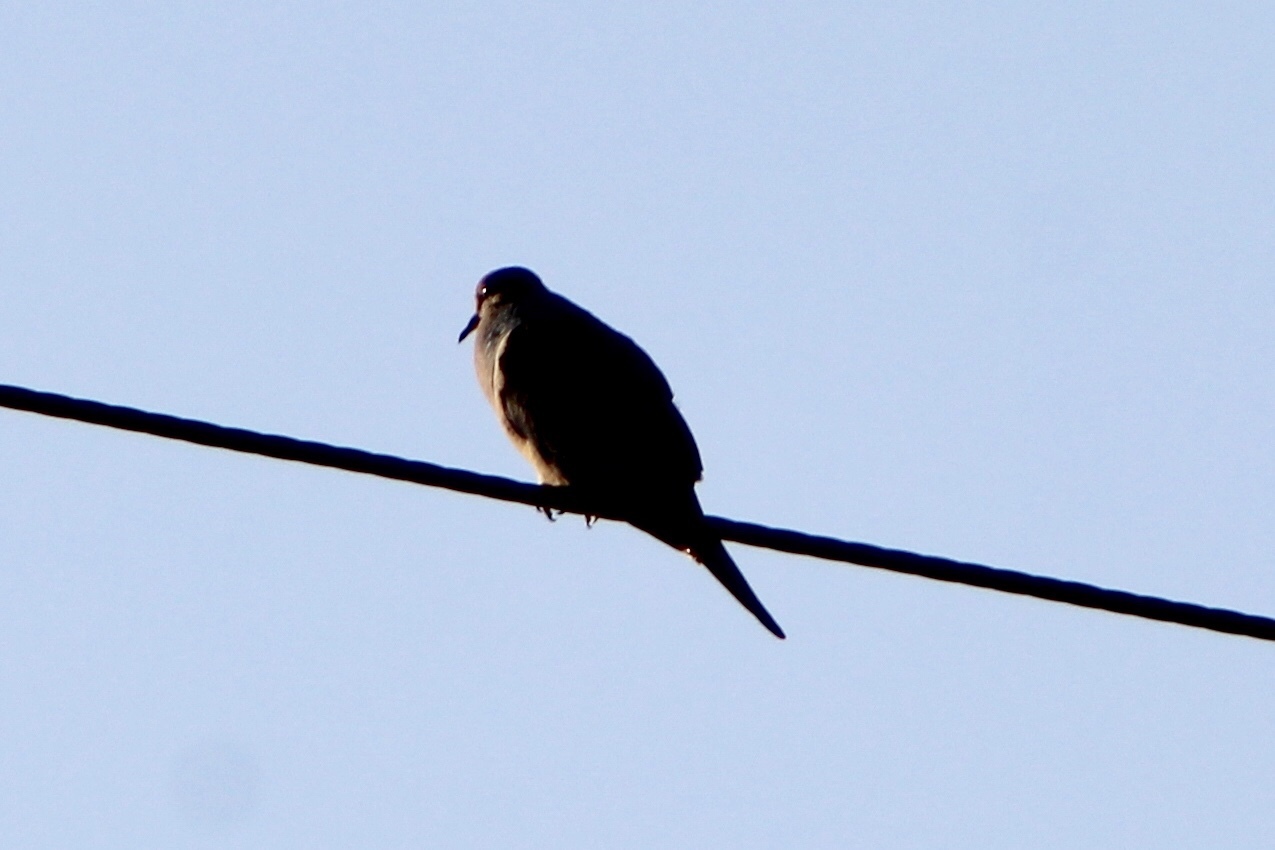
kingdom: Animalia
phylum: Chordata
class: Aves
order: Columbiformes
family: Columbidae
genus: Zenaida
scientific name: Zenaida macroura
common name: Mourning dove
